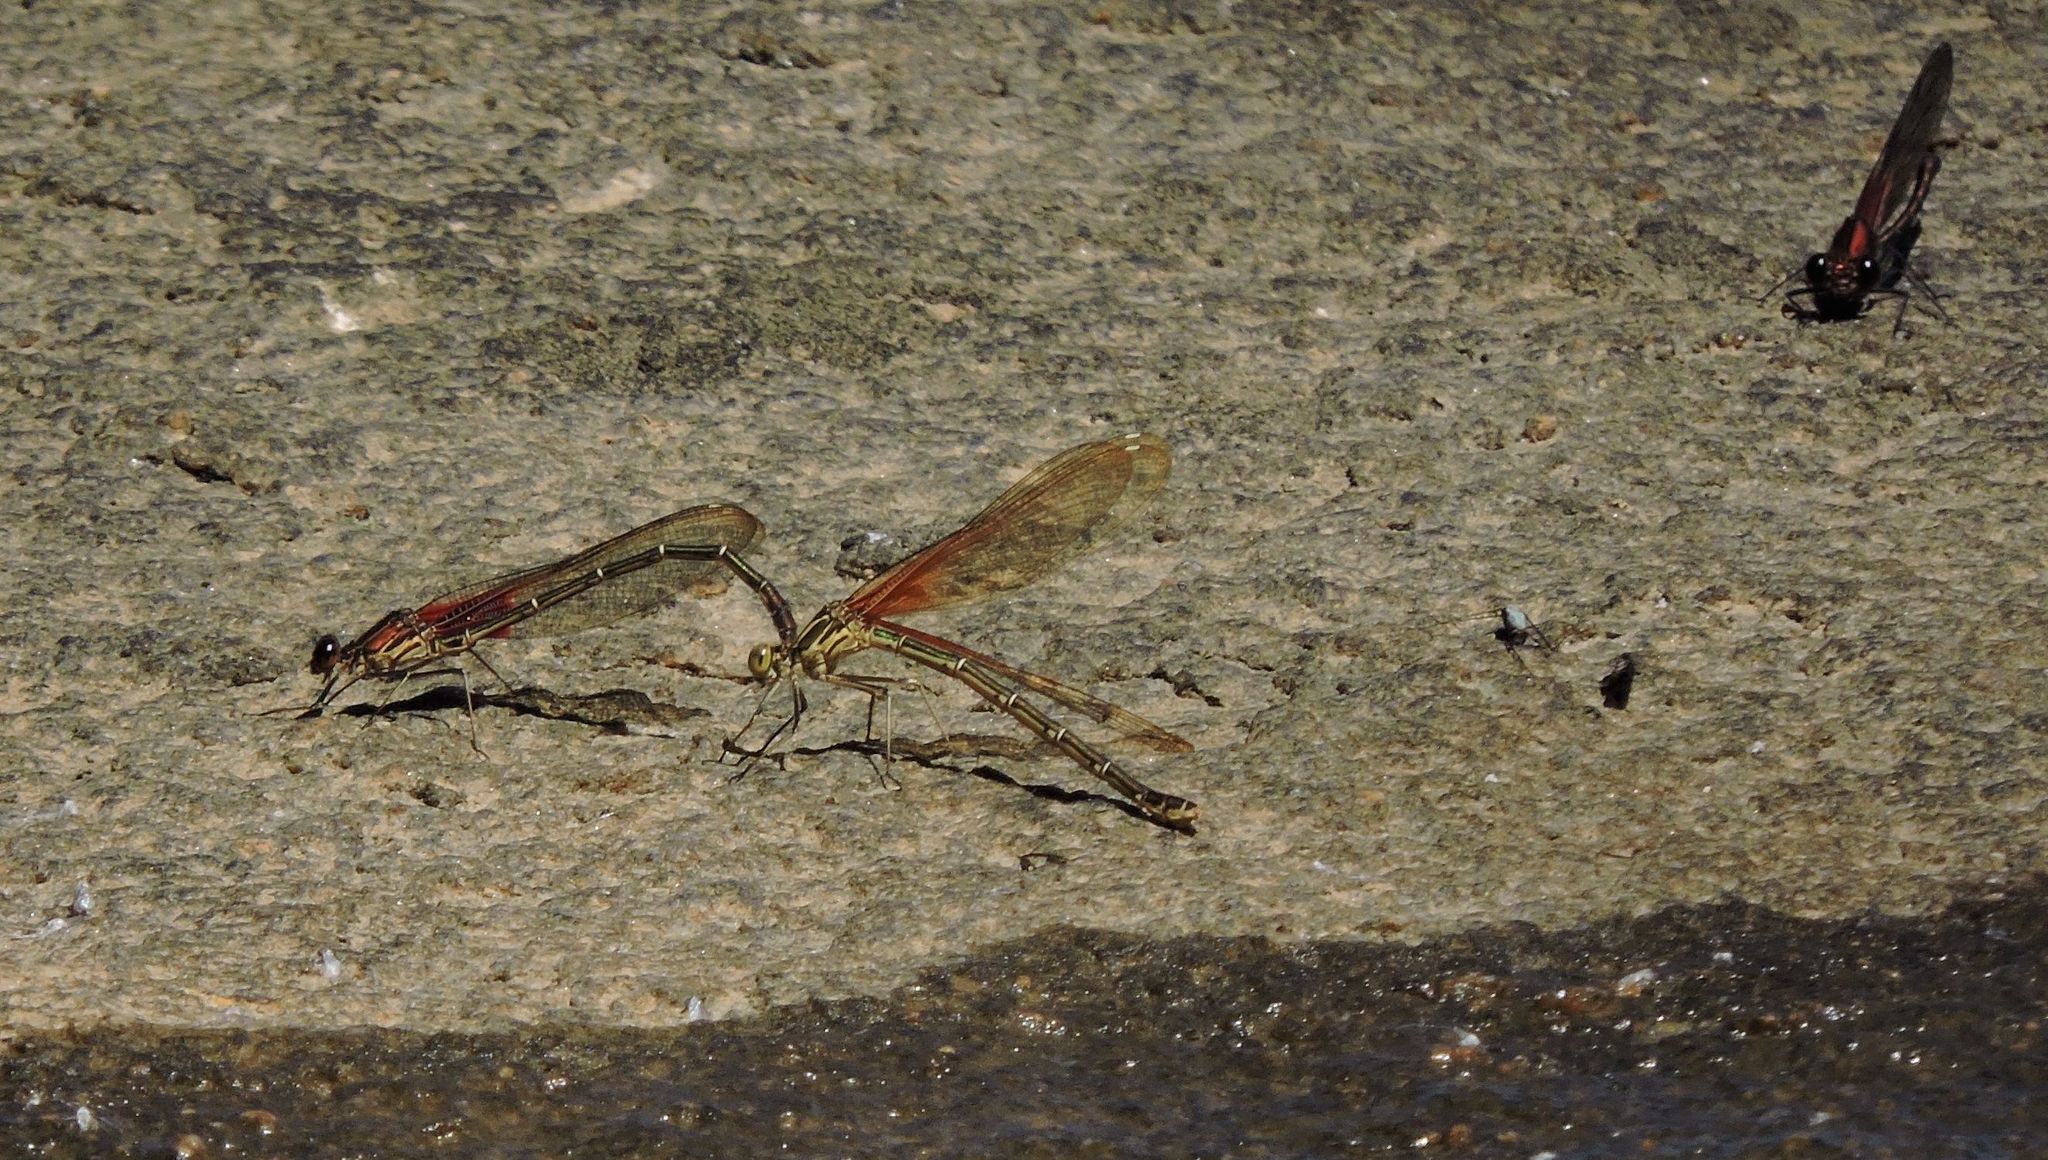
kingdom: Animalia
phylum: Arthropoda
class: Insecta
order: Odonata
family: Calopterygidae
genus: Hetaerina
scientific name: Hetaerina americana
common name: American rubyspot
